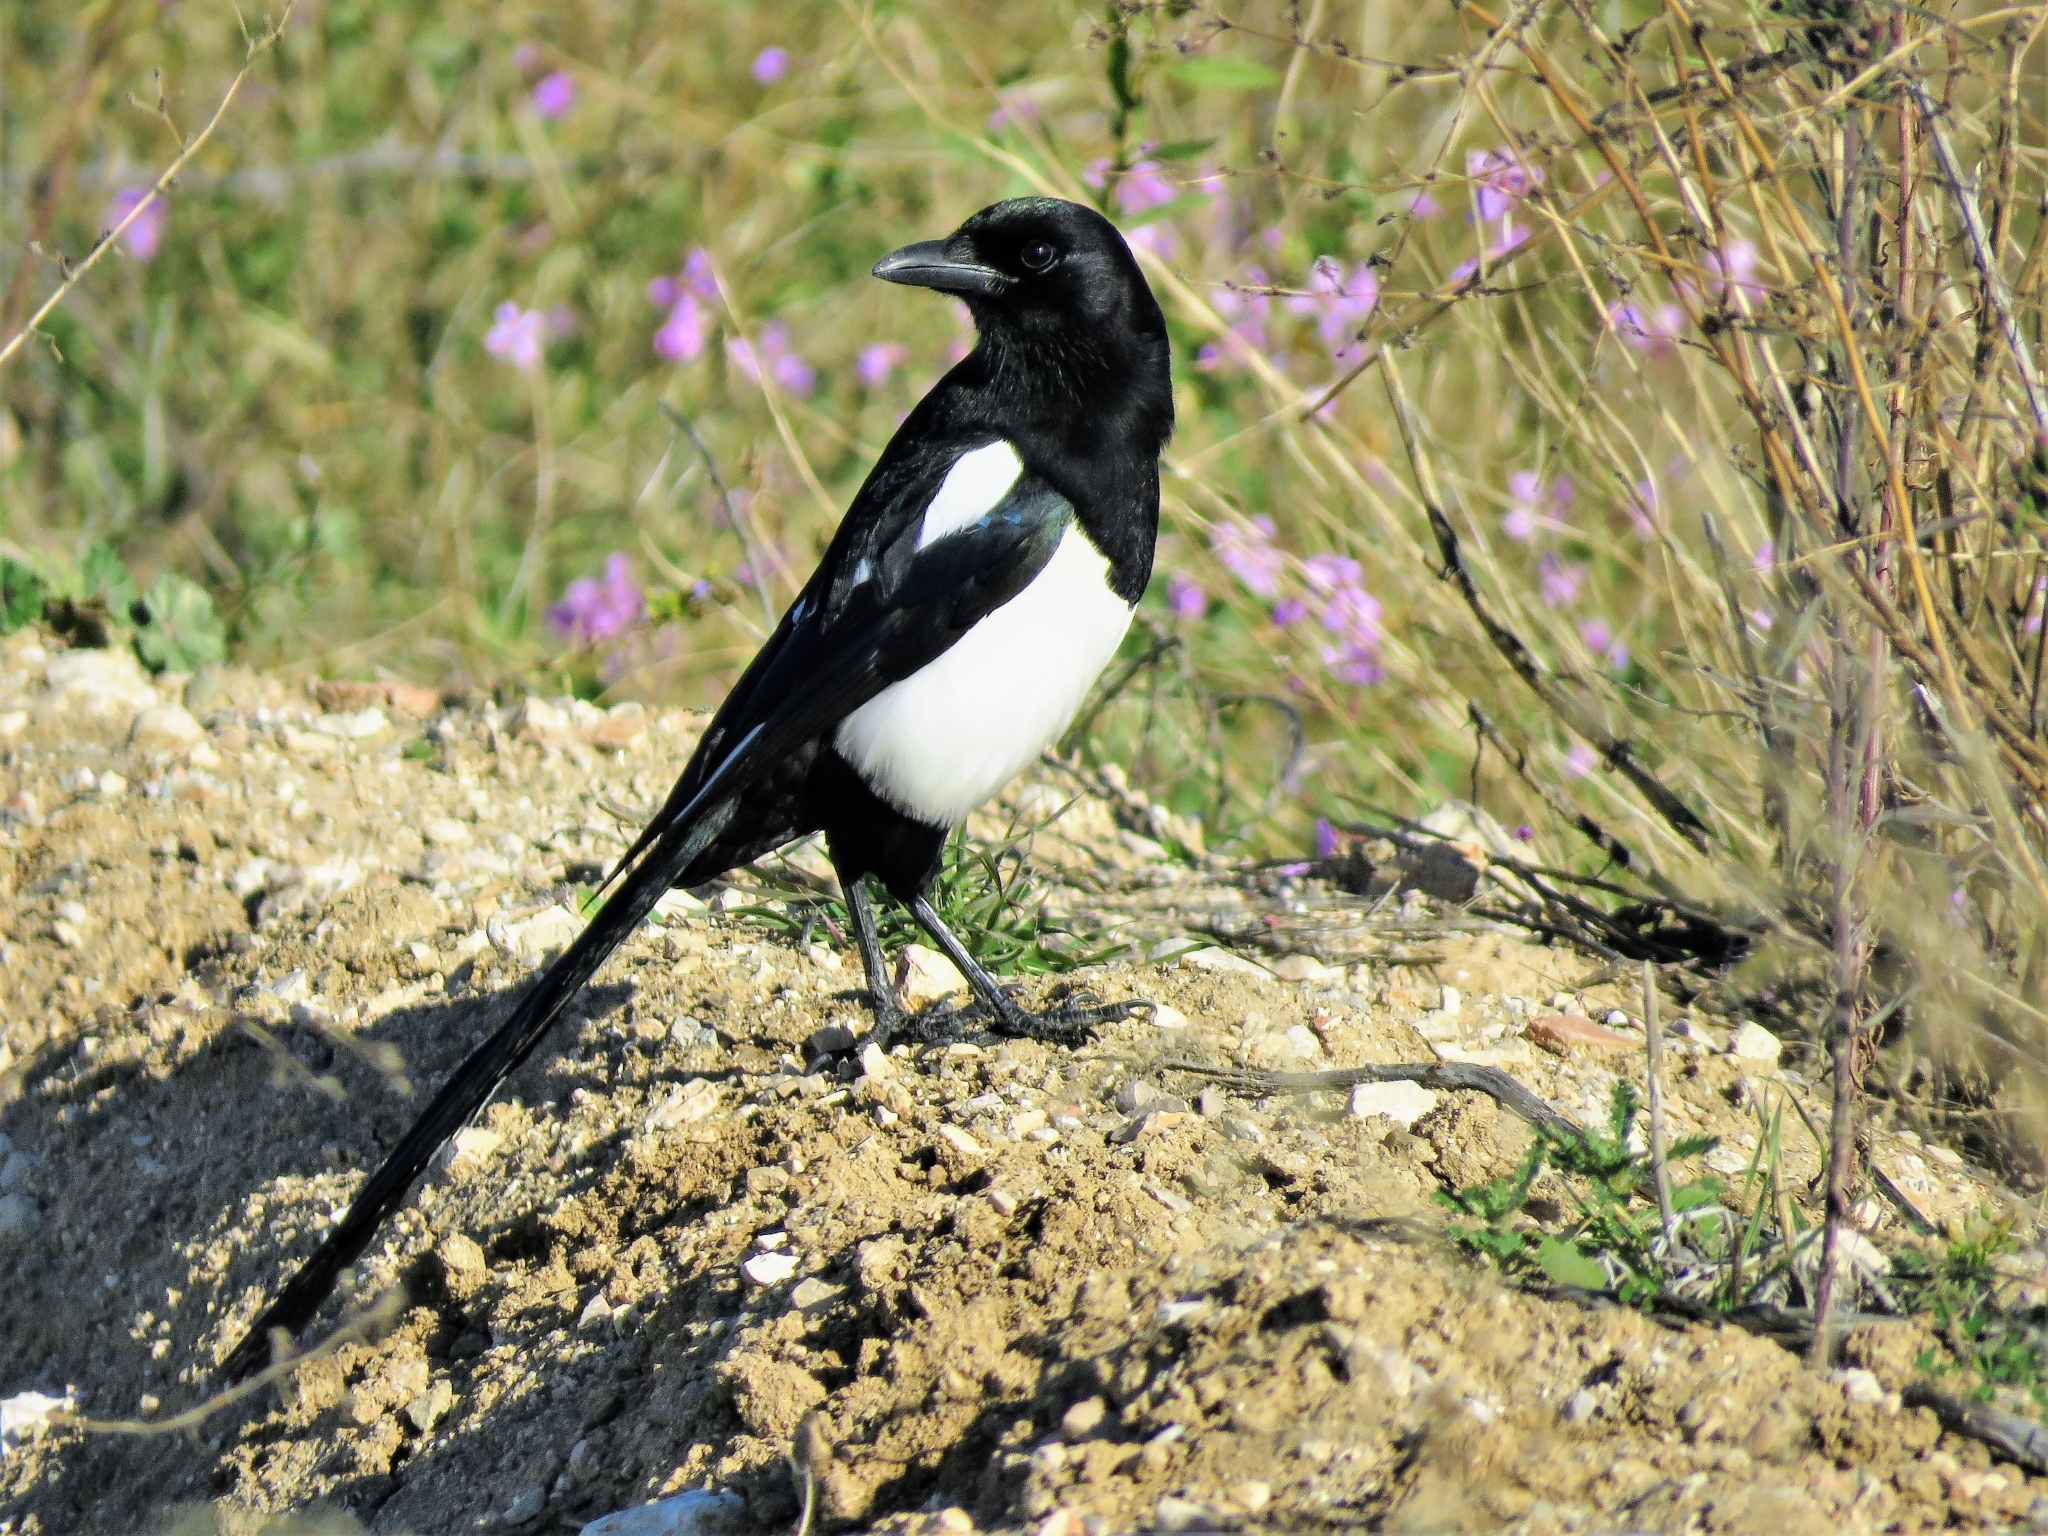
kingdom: Animalia
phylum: Chordata
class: Aves
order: Passeriformes
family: Corvidae
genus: Pica
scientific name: Pica pica
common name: Eurasian magpie
